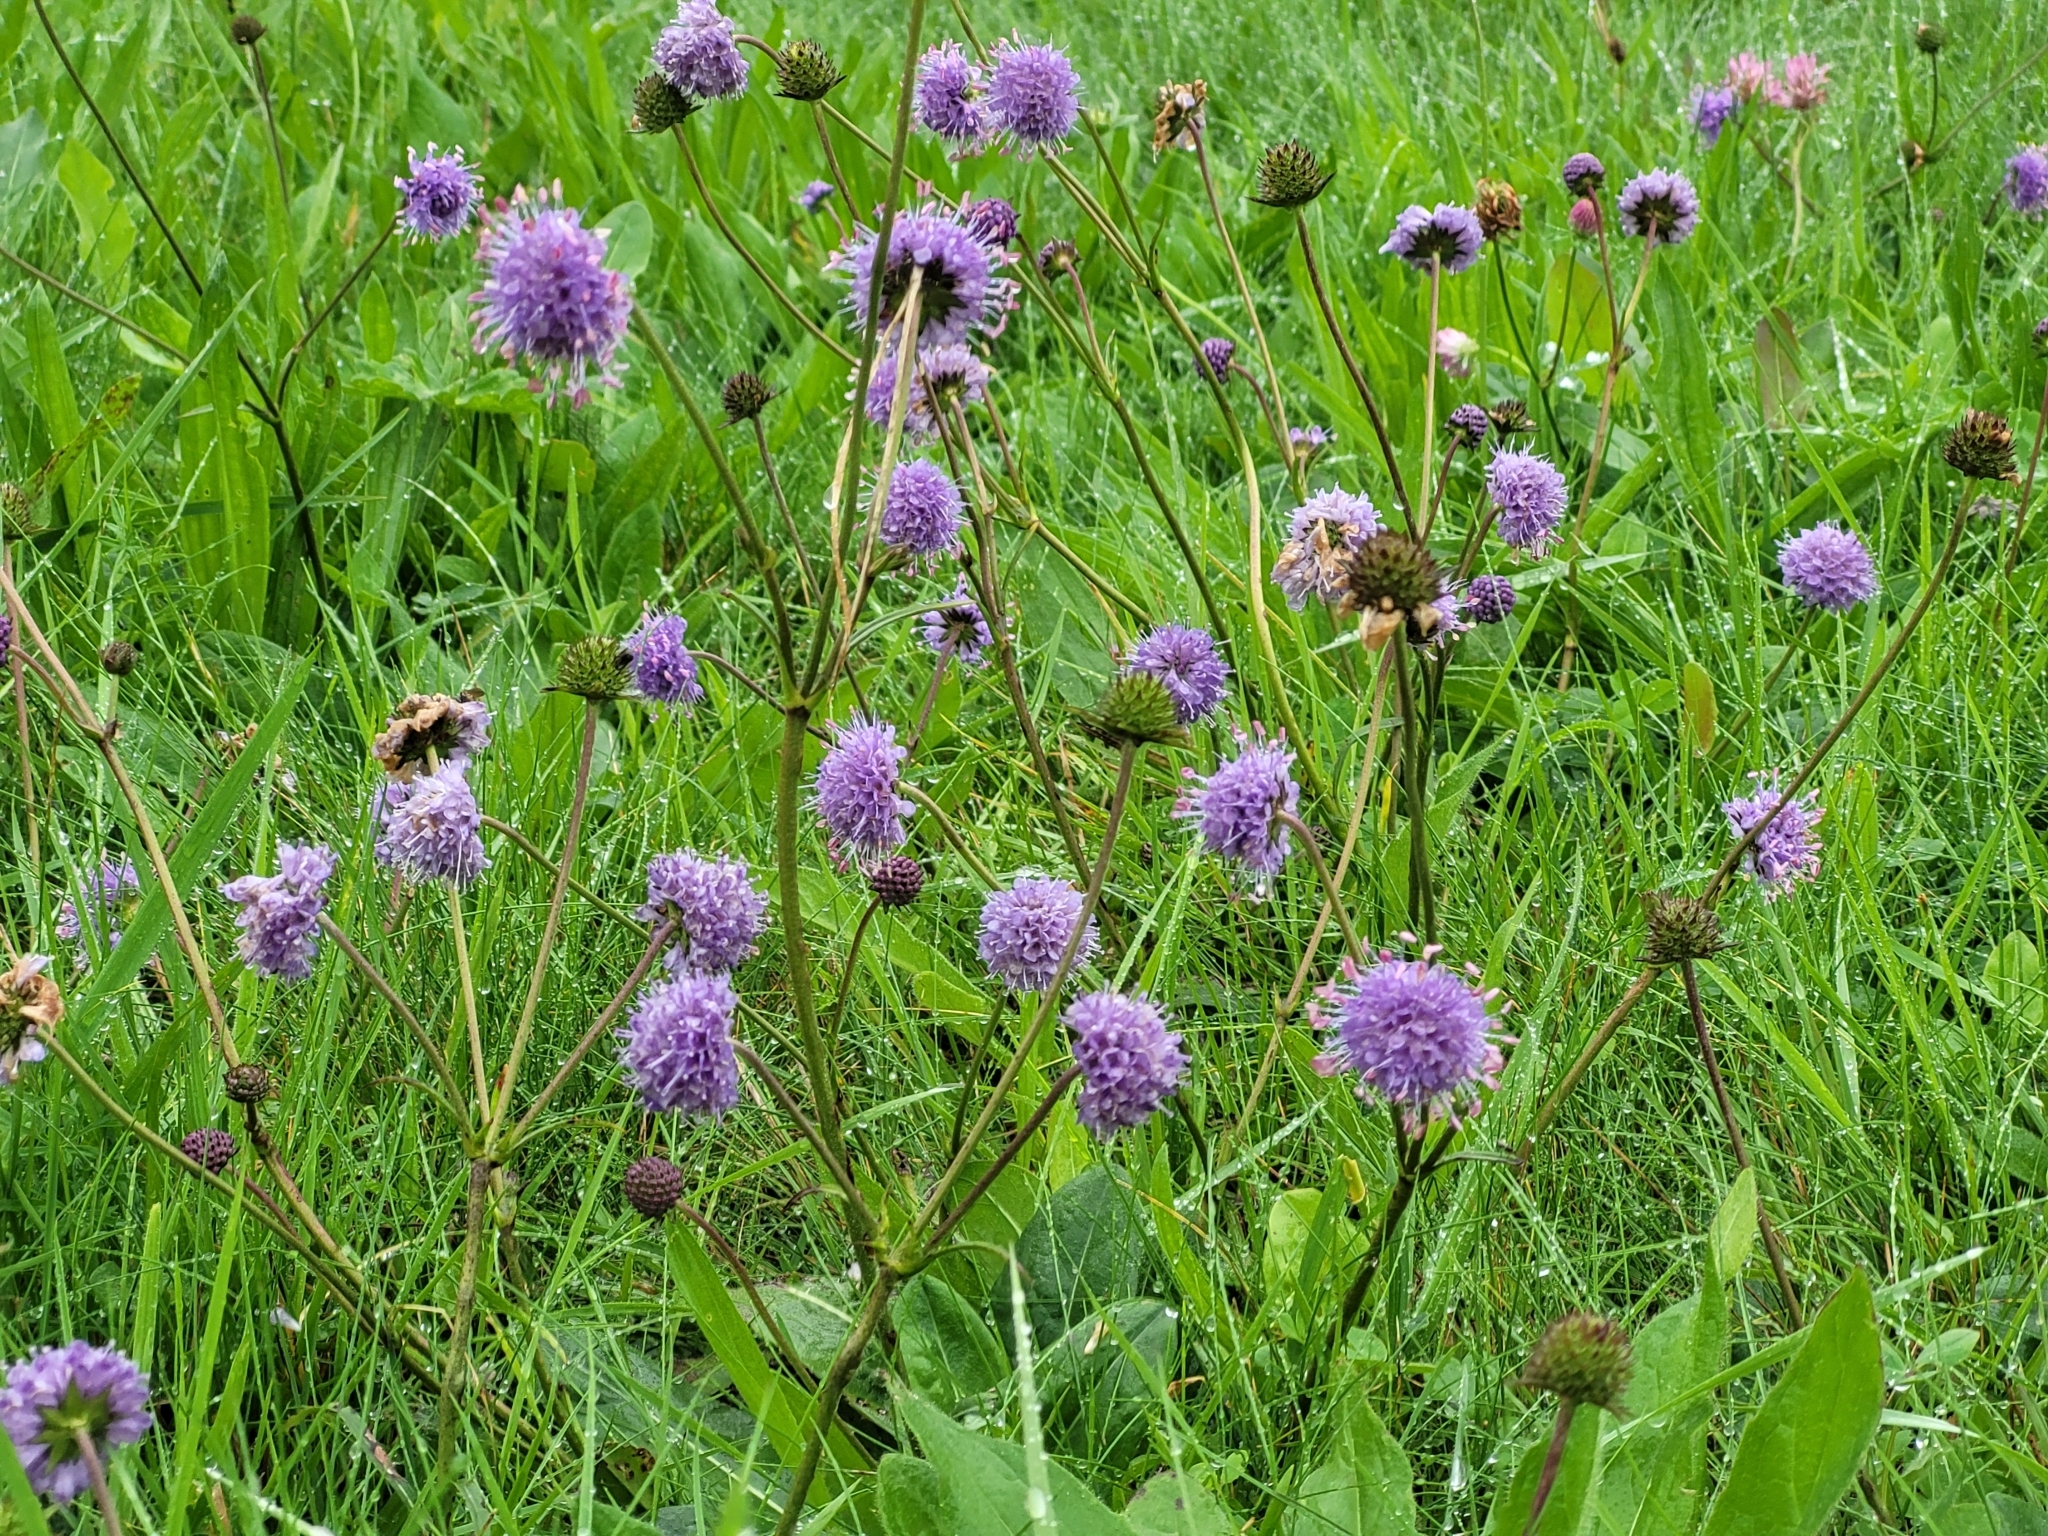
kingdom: Plantae
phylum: Tracheophyta
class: Magnoliopsida
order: Dipsacales
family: Caprifoliaceae
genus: Succisa
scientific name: Succisa pratensis
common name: Devil's-bit
